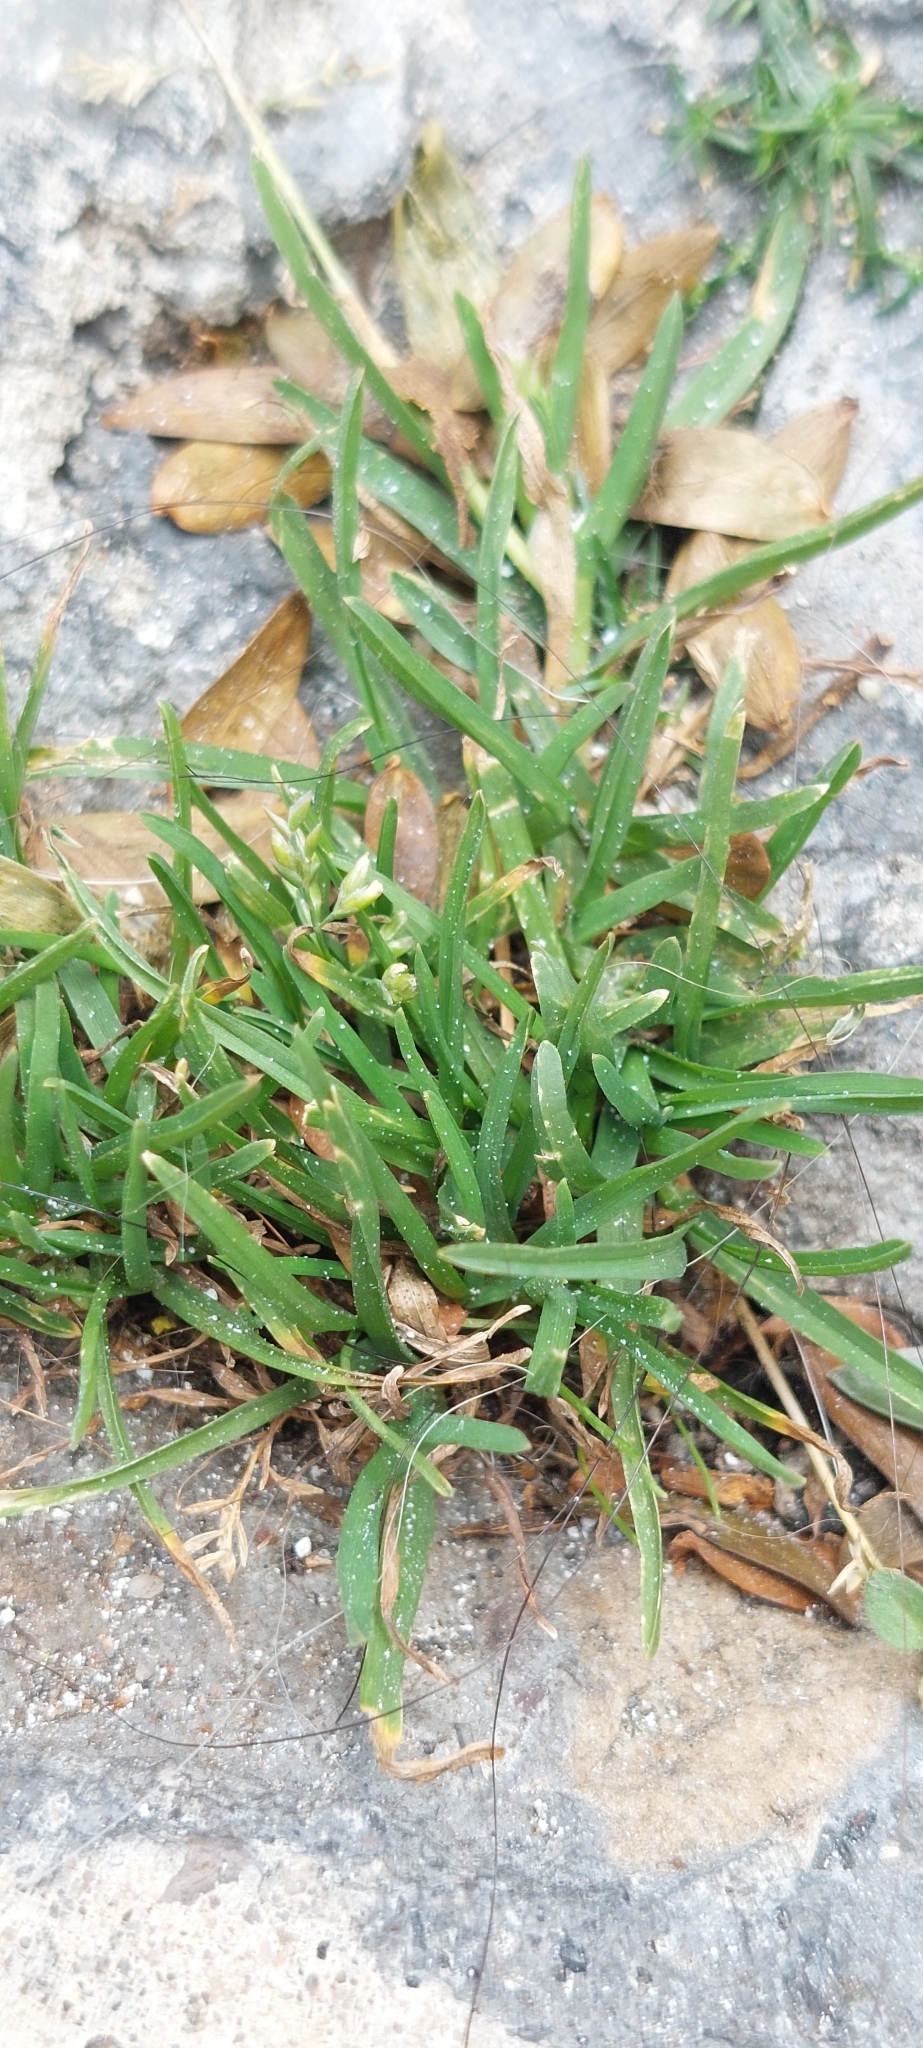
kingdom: Plantae
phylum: Tracheophyta
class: Liliopsida
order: Poales
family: Poaceae
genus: Poa
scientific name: Poa annua
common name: Annual bluegrass
